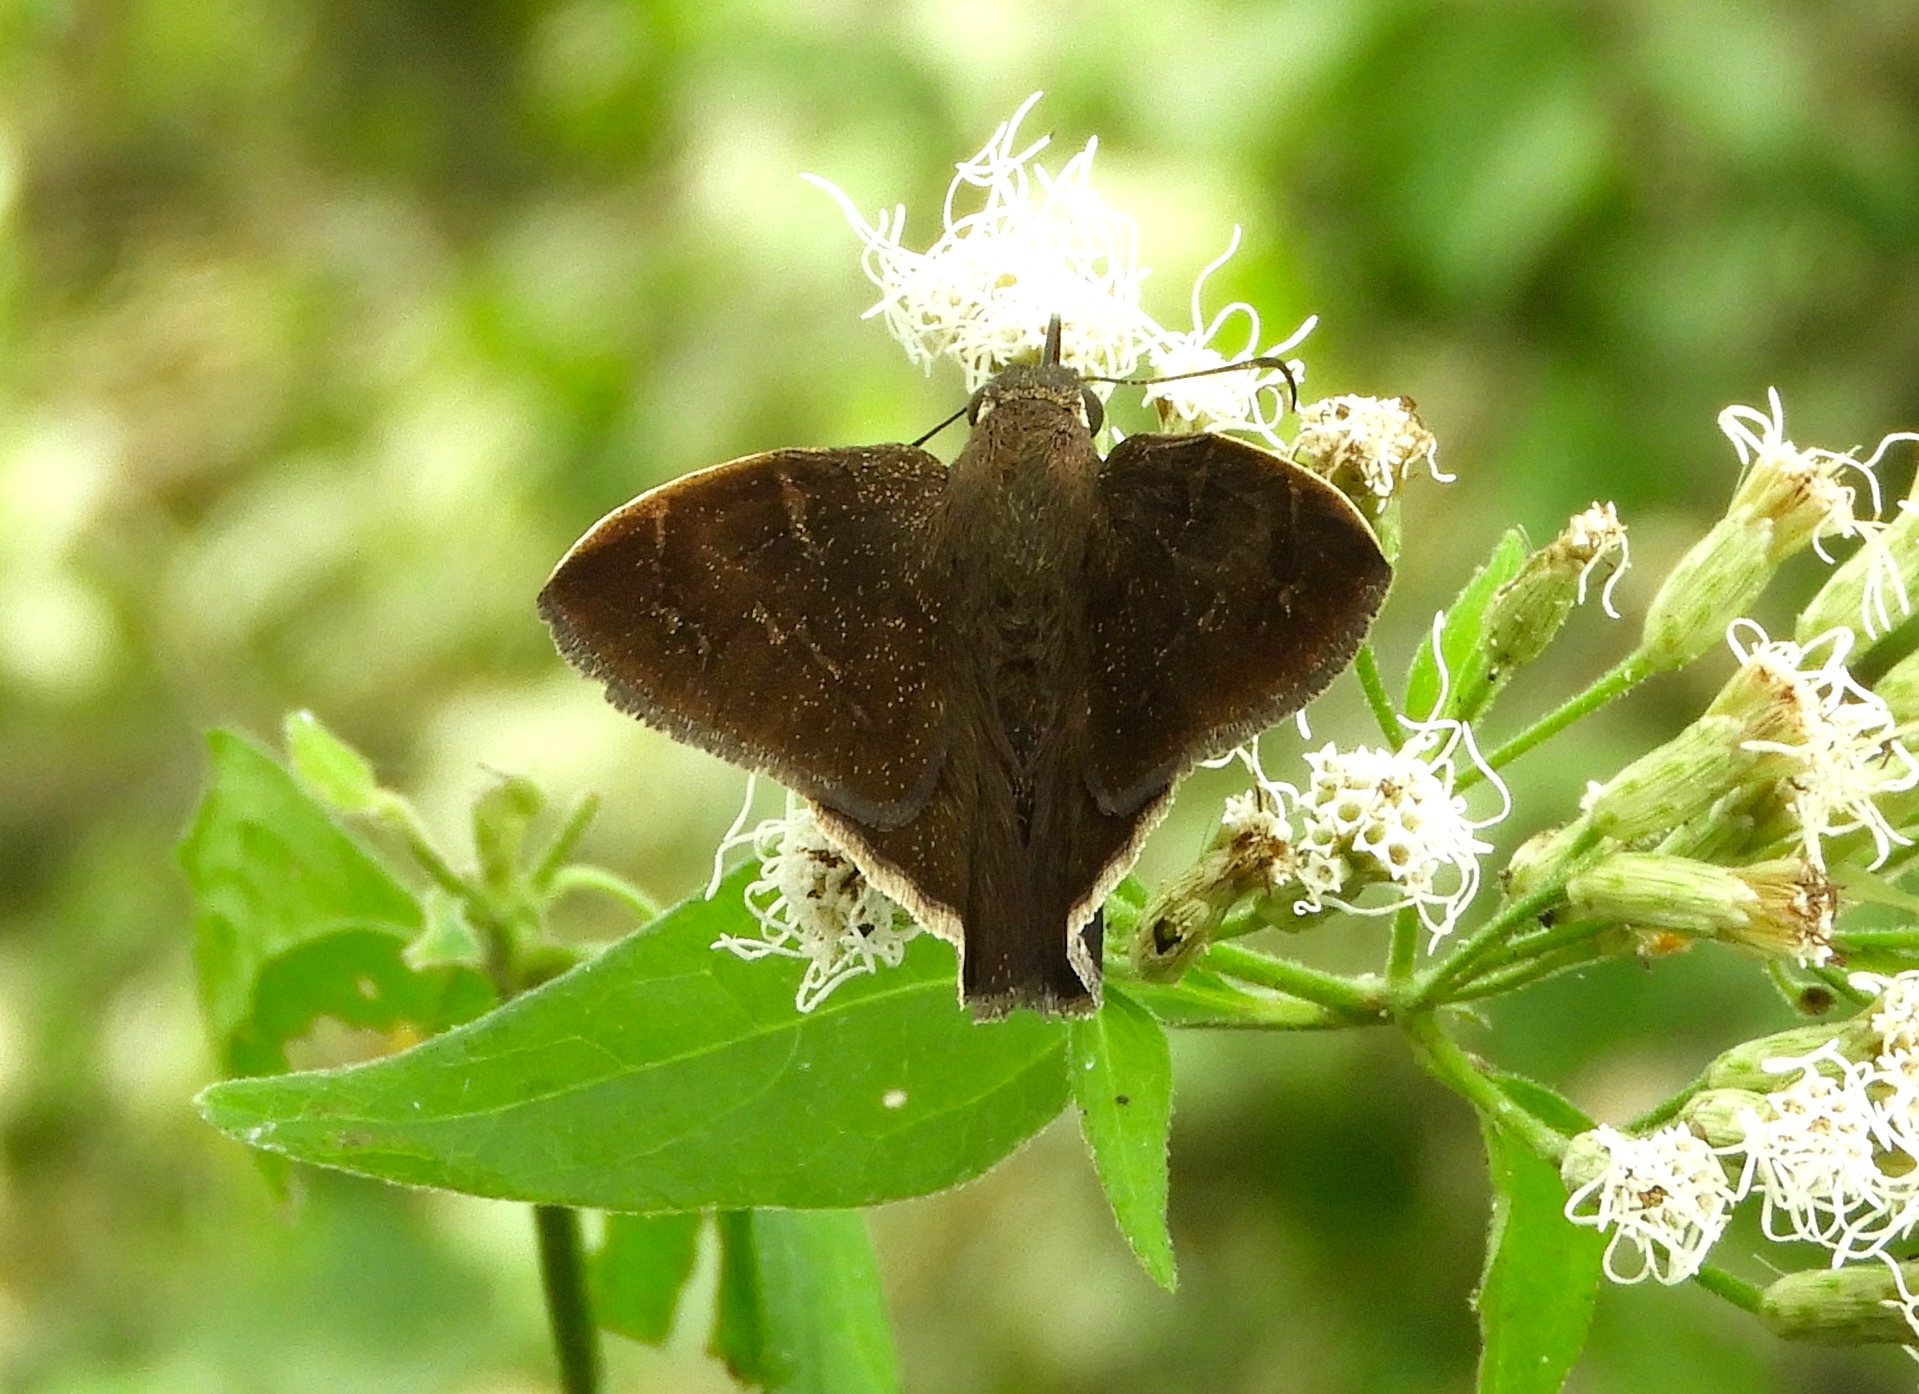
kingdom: Animalia
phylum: Arthropoda
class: Insecta
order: Lepidoptera
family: Hesperiidae
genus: Achalarus
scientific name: Achalarus Murgaria albociliatus
